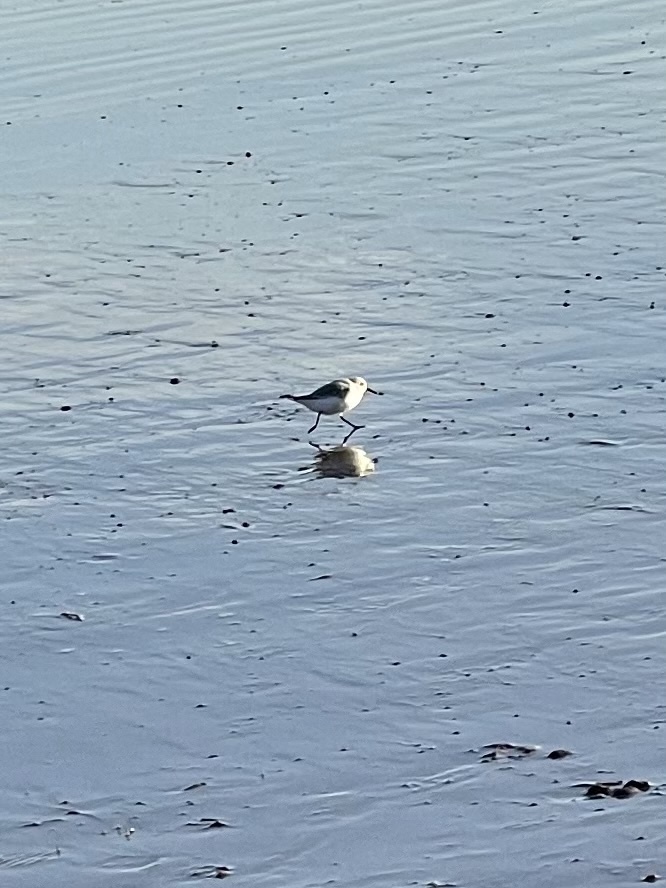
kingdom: Animalia
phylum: Chordata
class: Aves
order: Charadriiformes
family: Scolopacidae
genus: Calidris
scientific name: Calidris alba
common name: Sanderling
